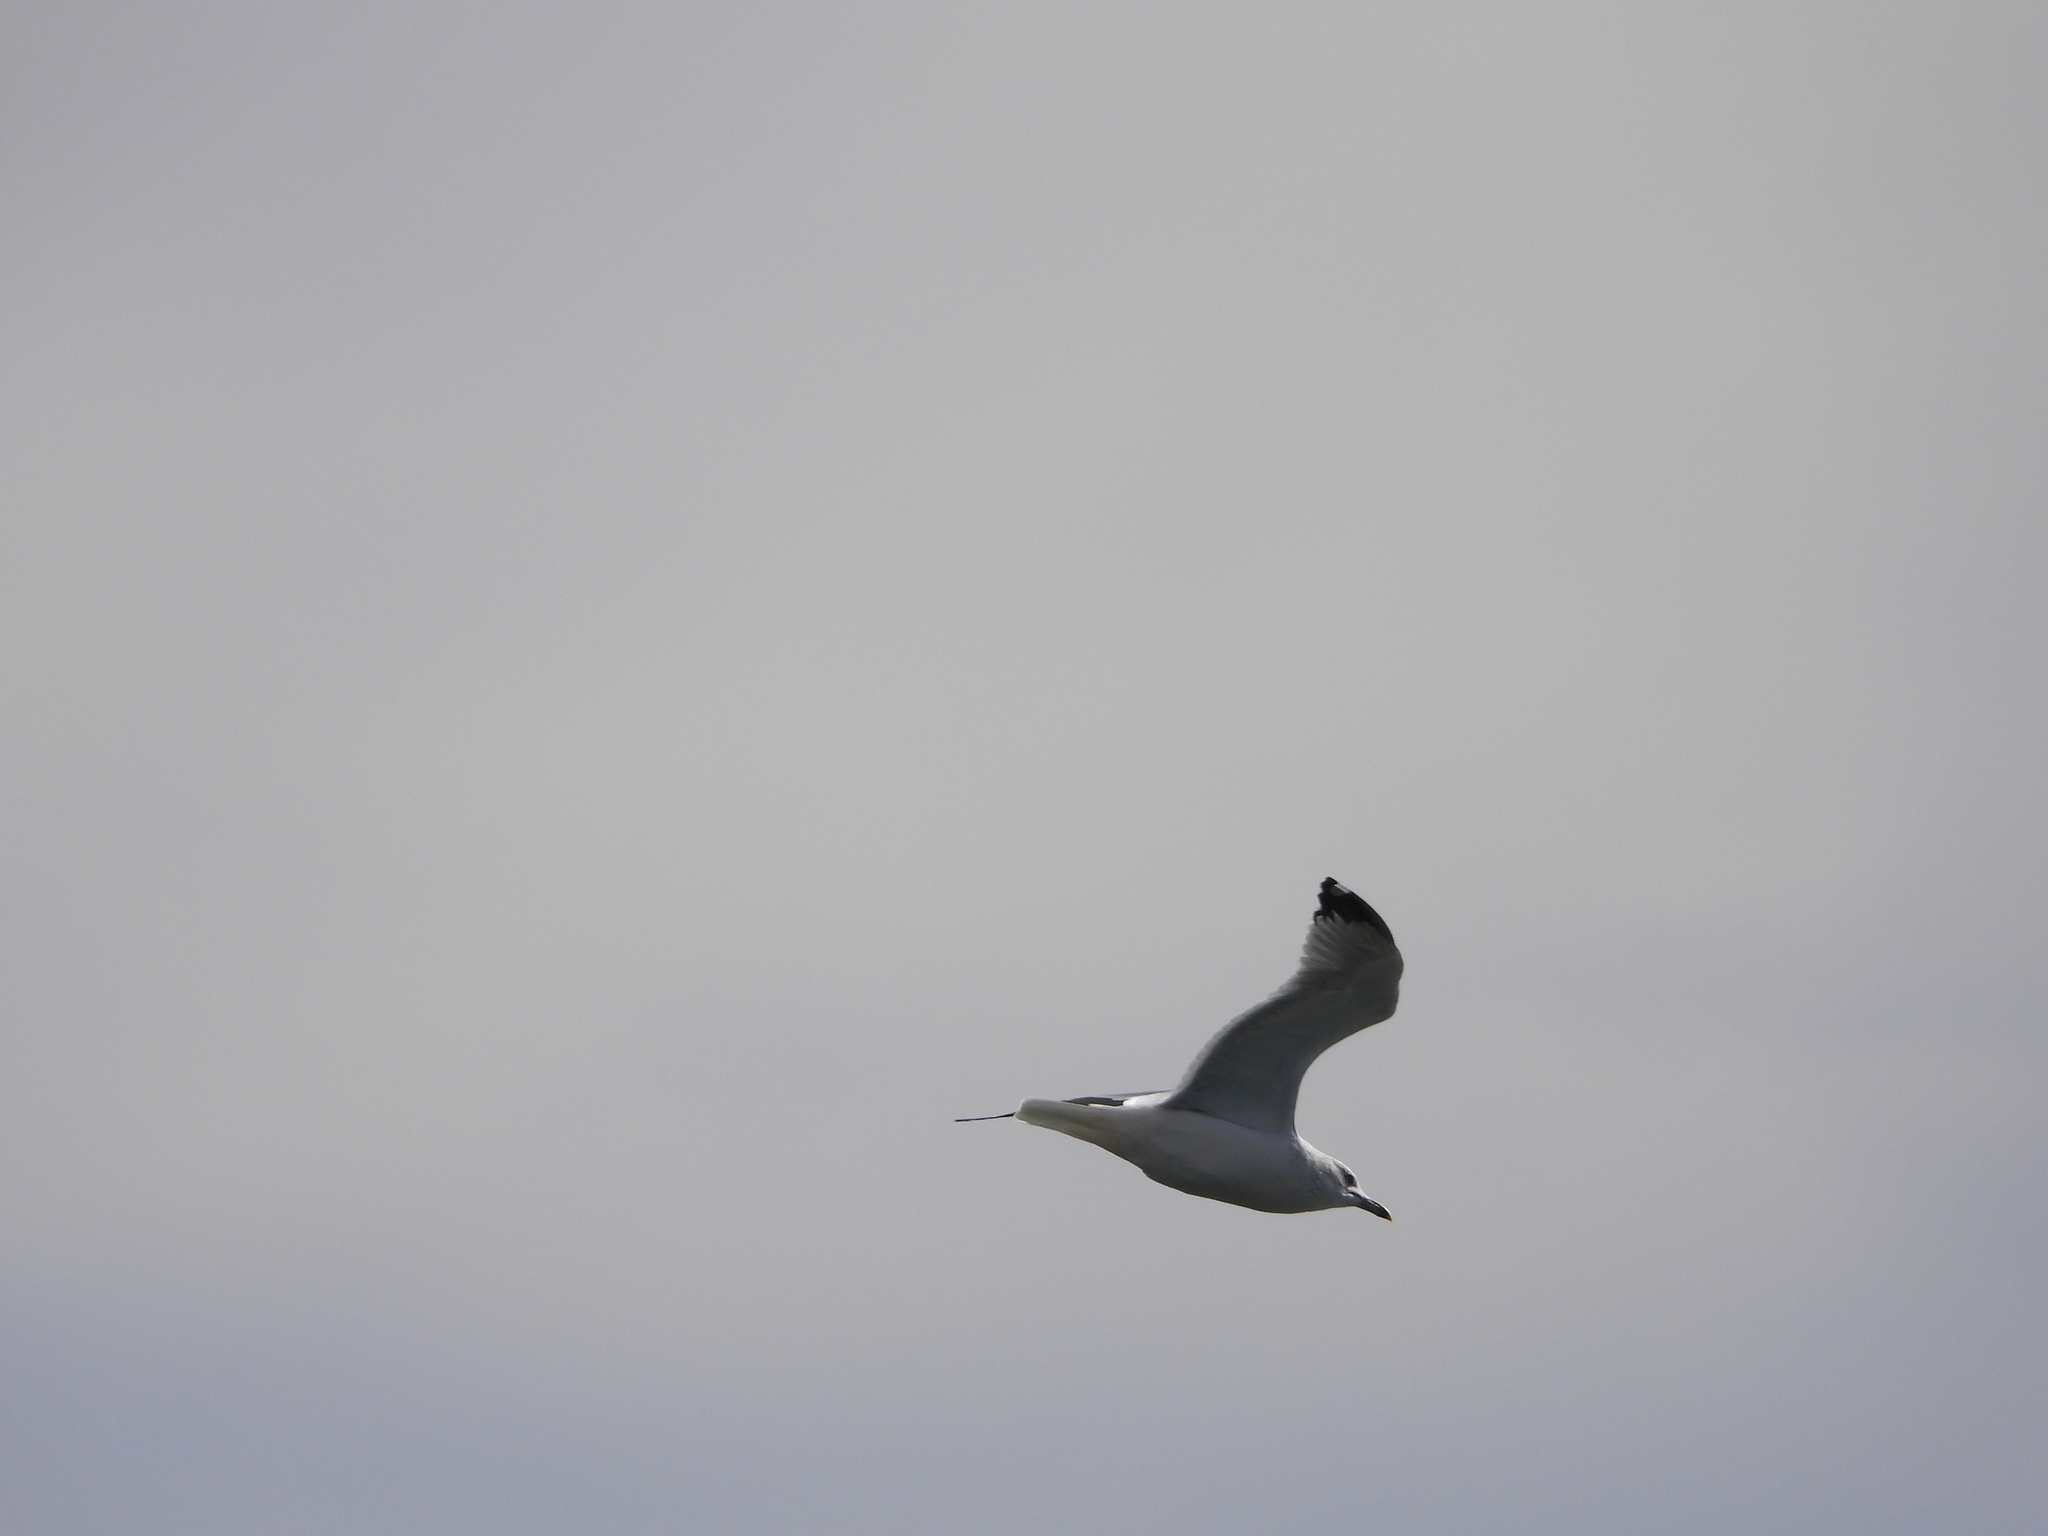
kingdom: Animalia
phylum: Chordata
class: Aves
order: Charadriiformes
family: Laridae
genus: Larus
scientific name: Larus delawarensis
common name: Ring-billed gull
